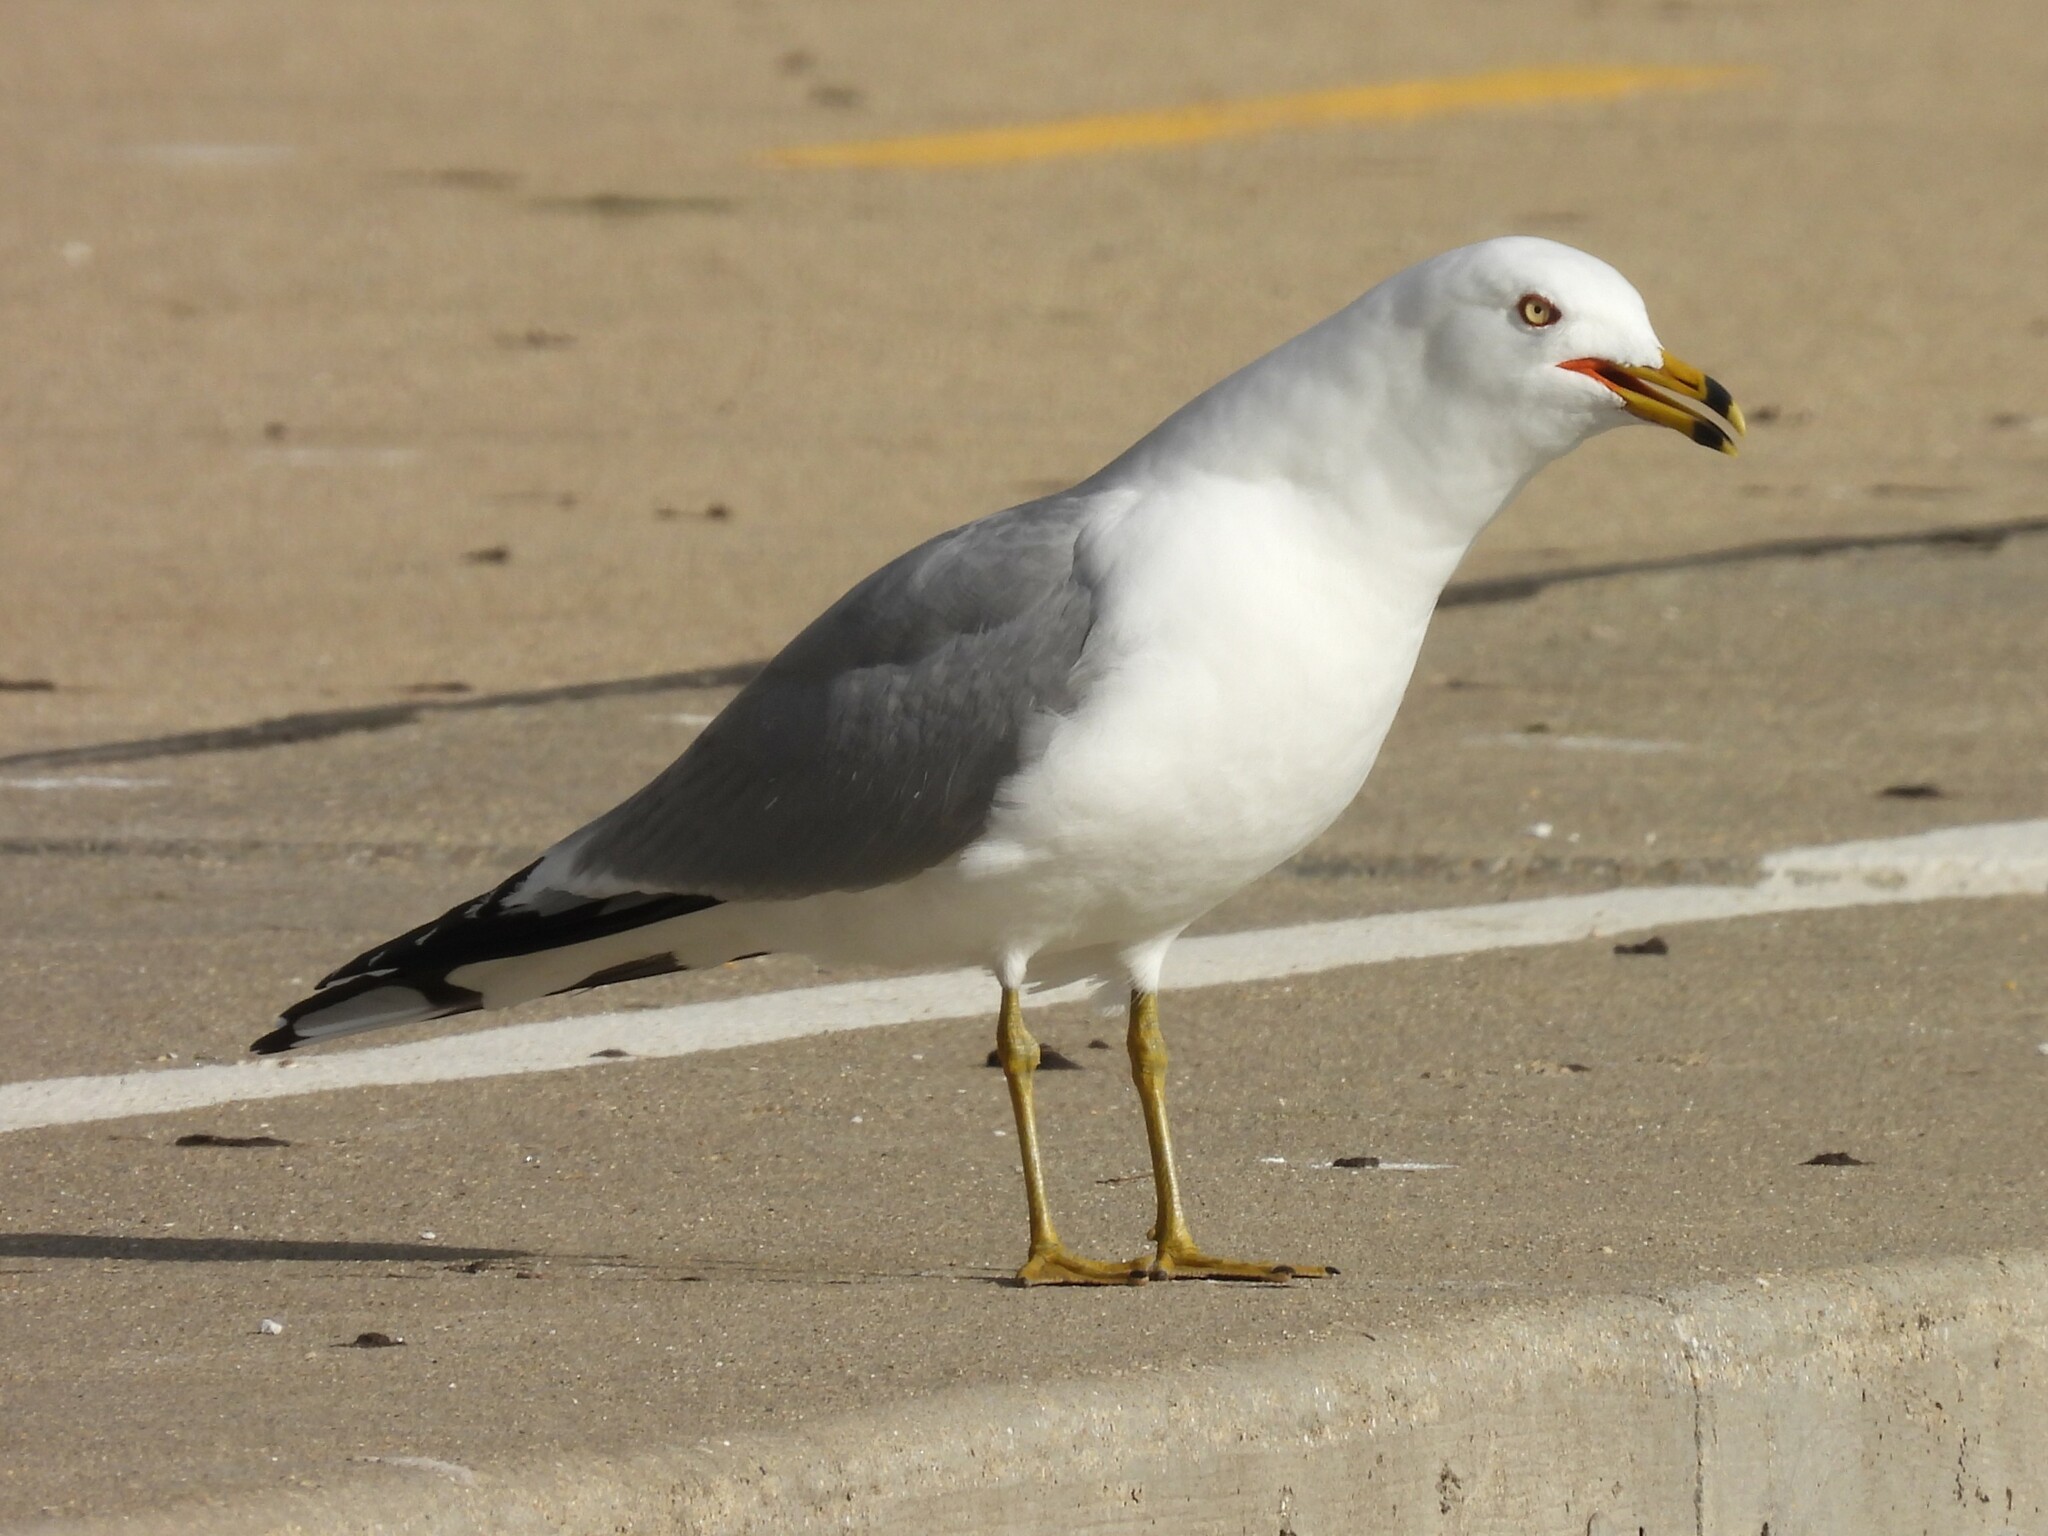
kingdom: Animalia
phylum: Chordata
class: Aves
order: Charadriiformes
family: Laridae
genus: Larus
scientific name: Larus delawarensis
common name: Ring-billed gull
